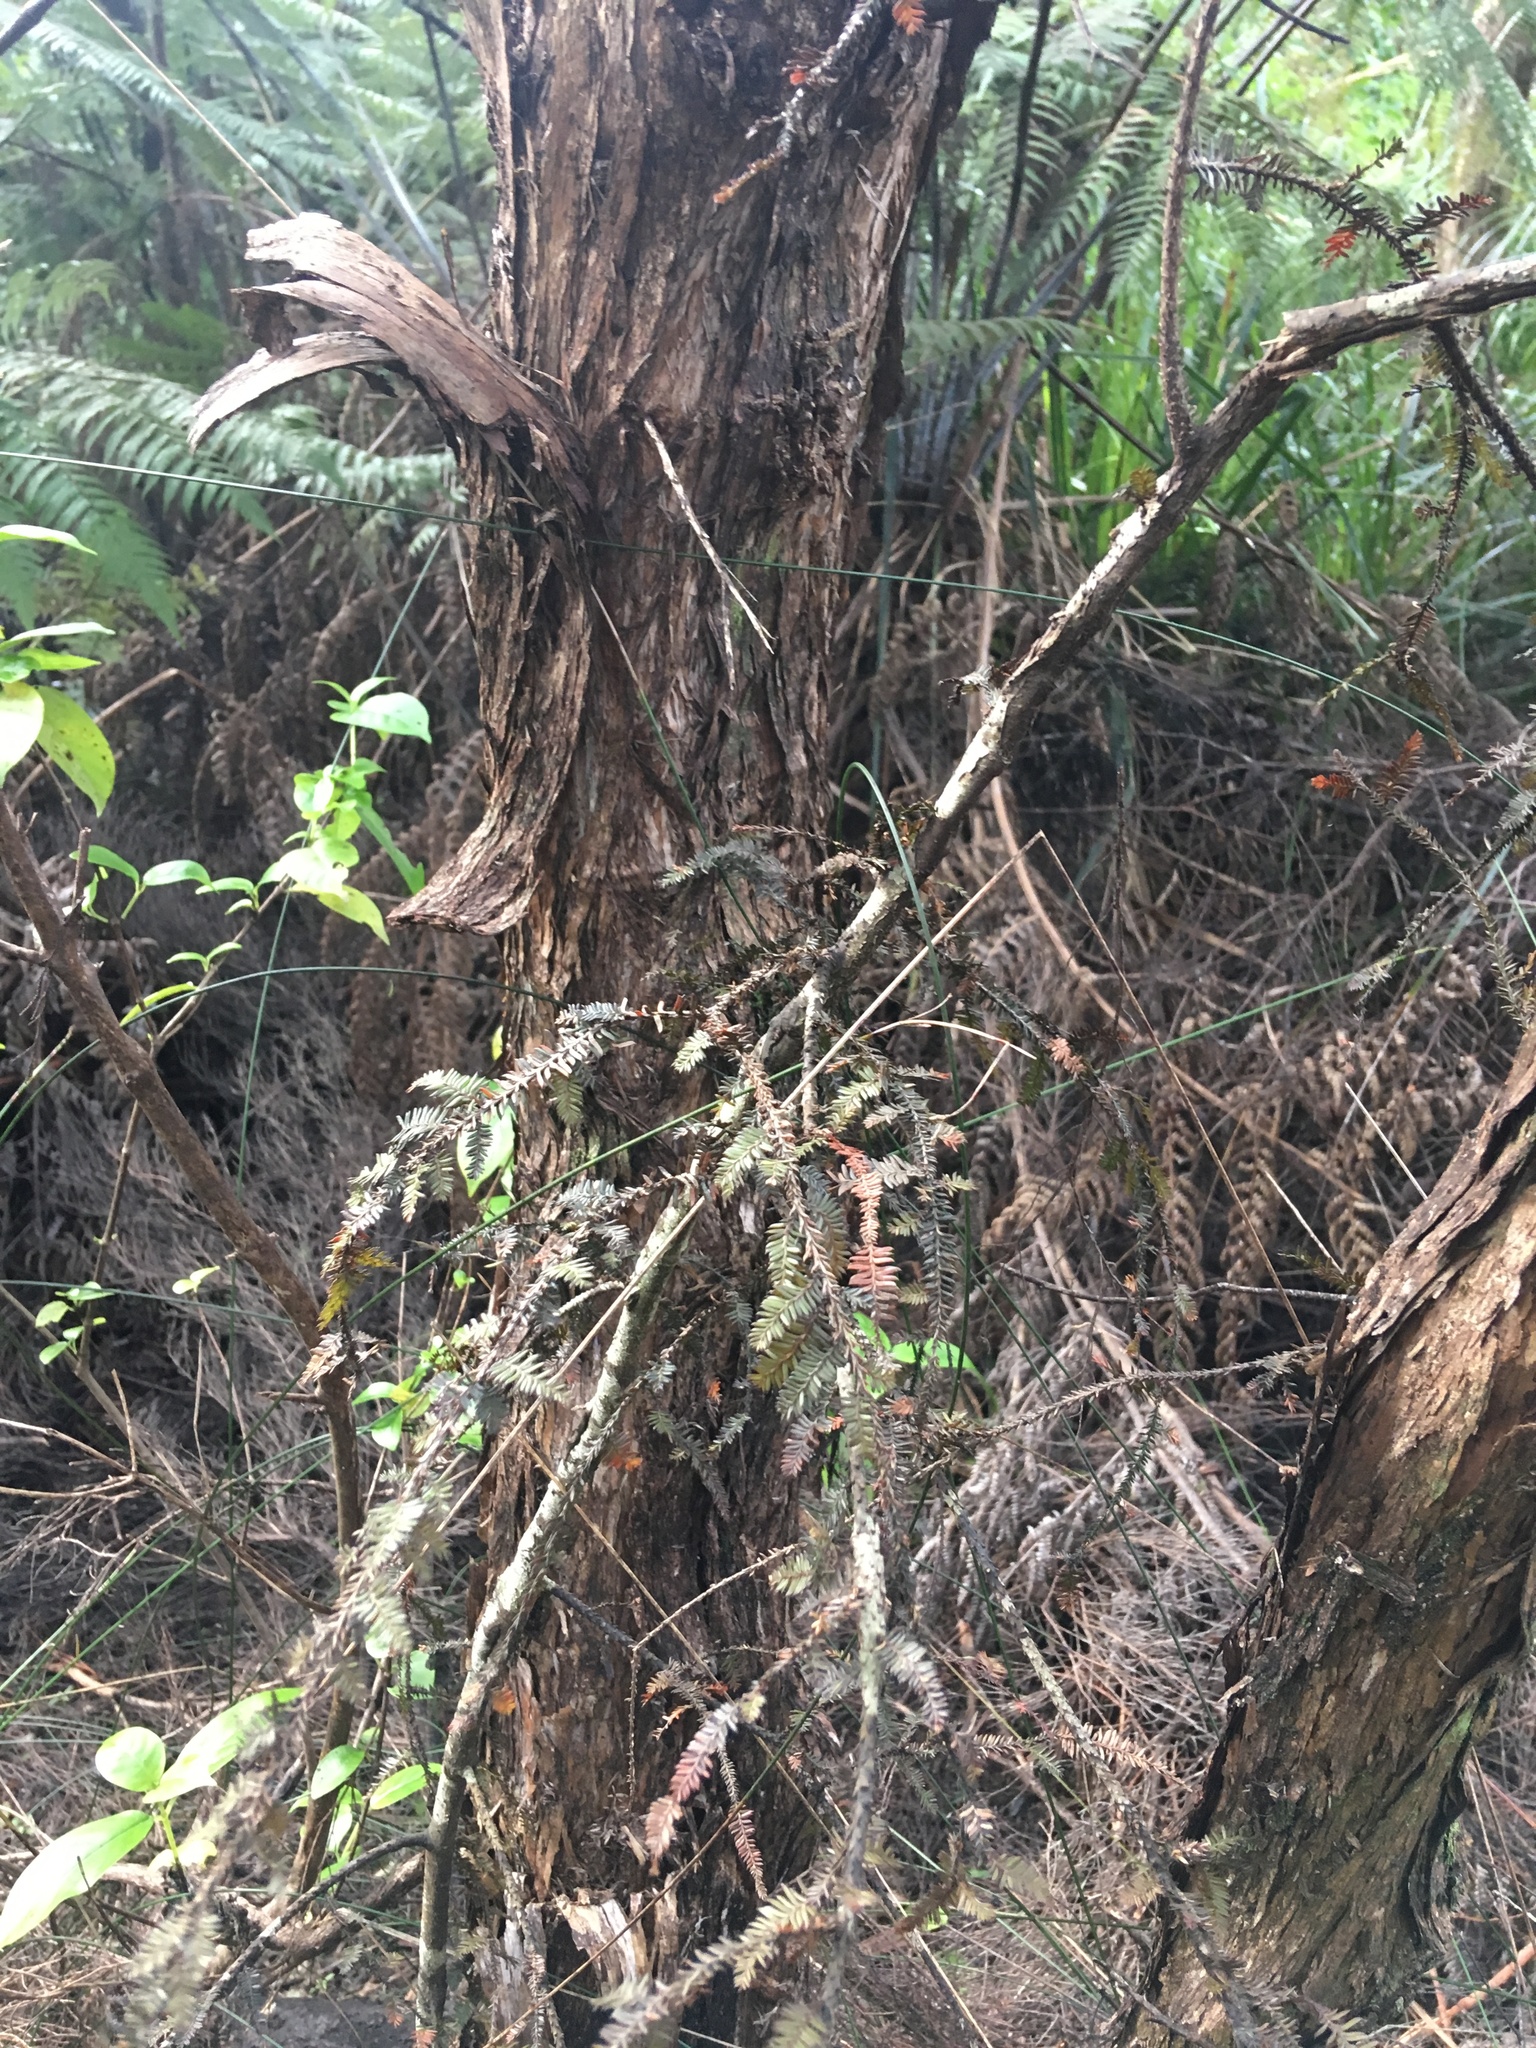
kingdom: Plantae
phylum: Tracheophyta
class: Pinopsida
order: Pinales
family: Podocarpaceae
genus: Dacrycarpus
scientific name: Dacrycarpus dacrydioides
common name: White pine
